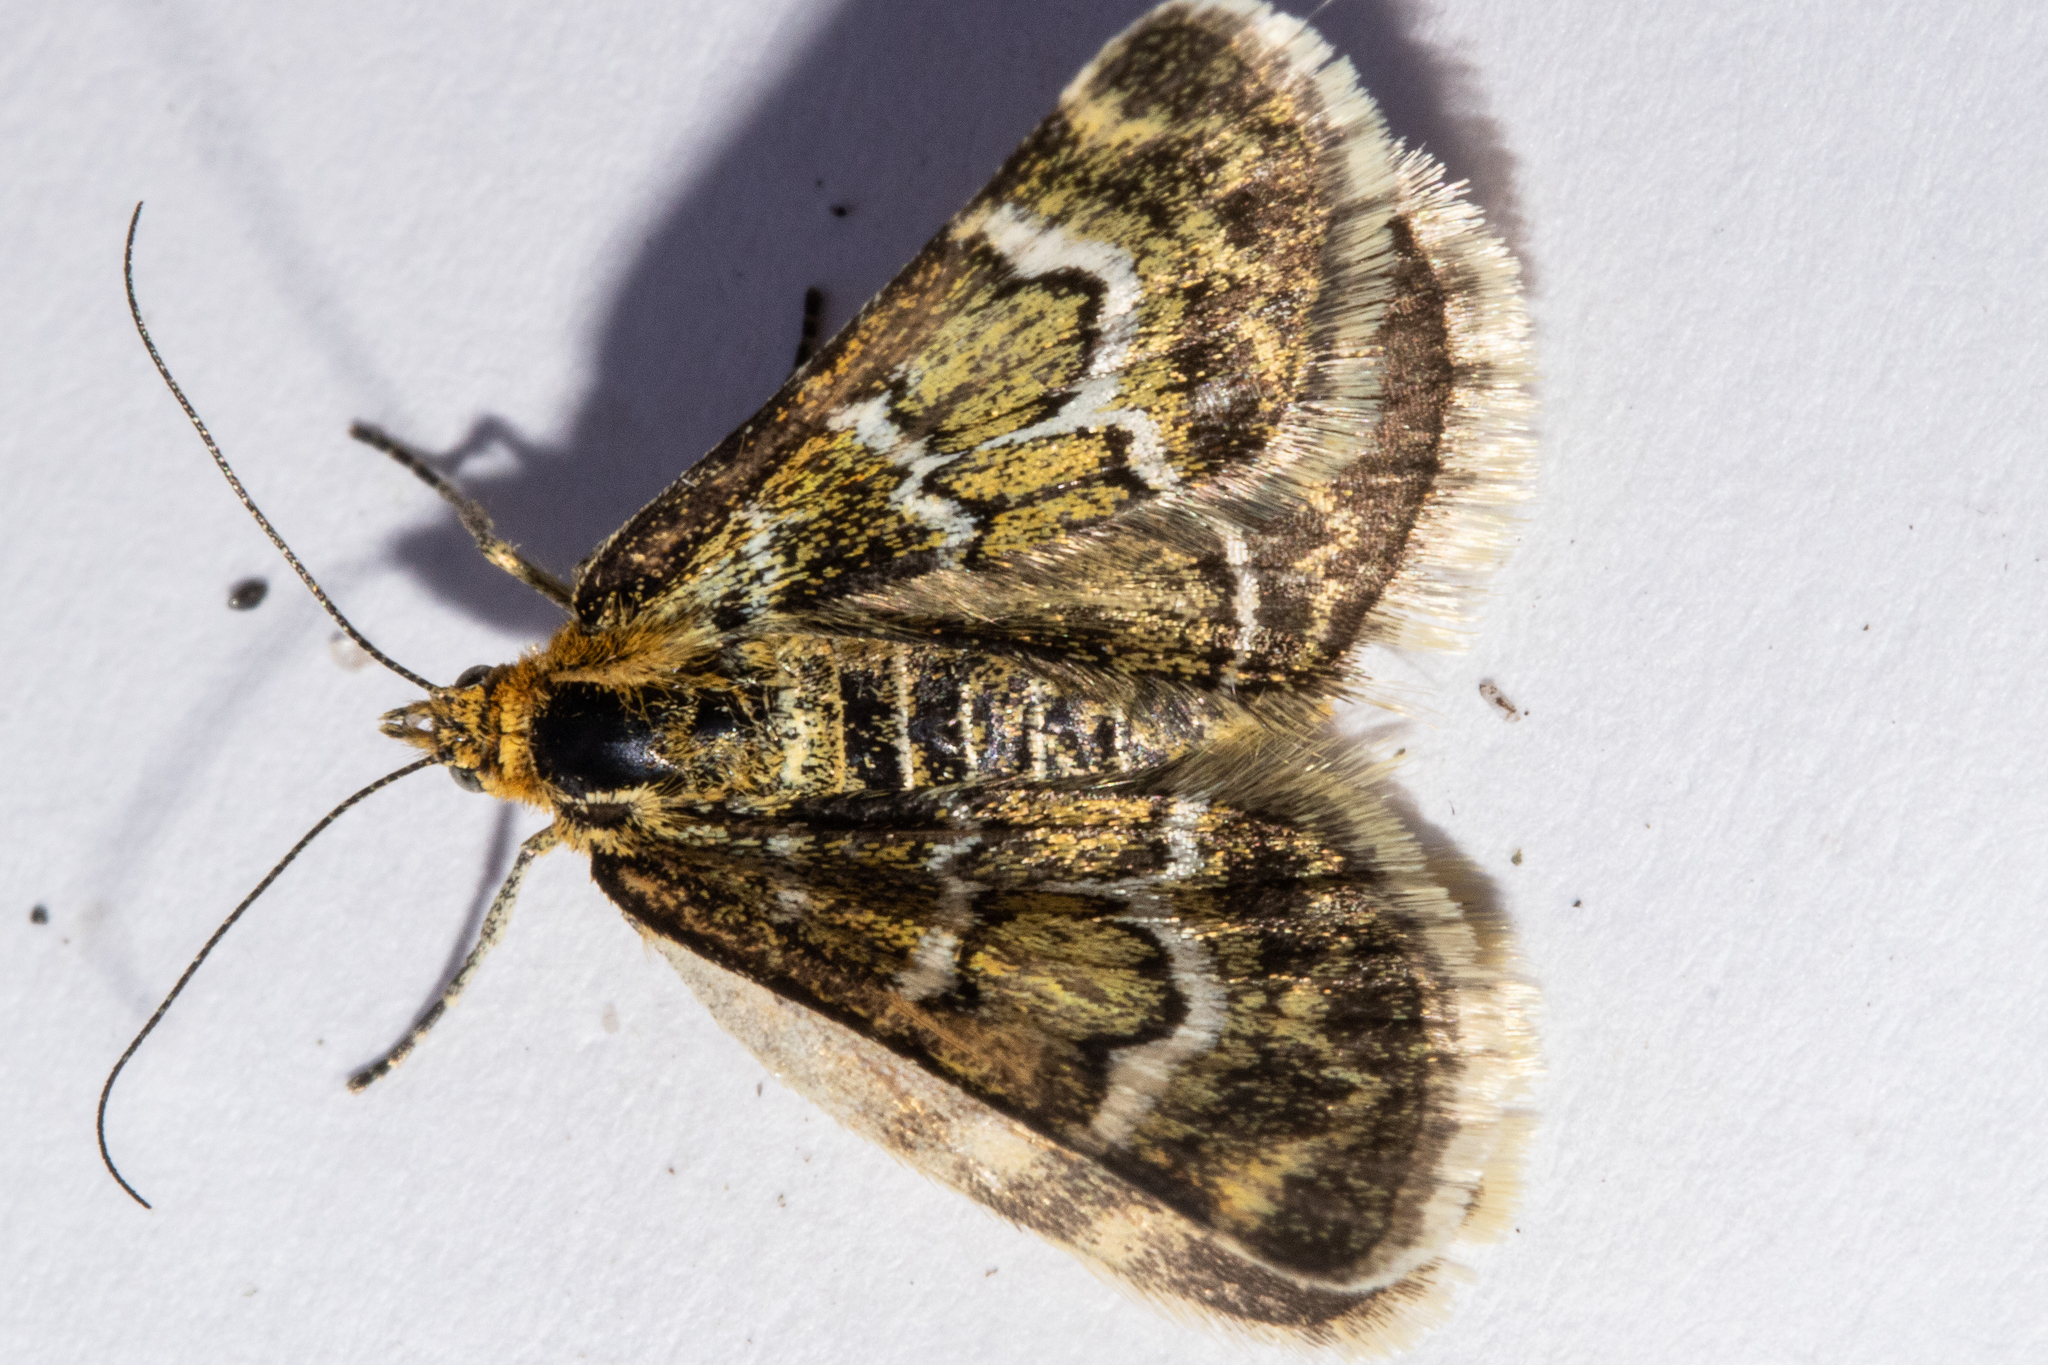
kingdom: Animalia
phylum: Arthropoda
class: Insecta
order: Lepidoptera
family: Geometridae
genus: Notoreas
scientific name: Notoreas paradelpha
